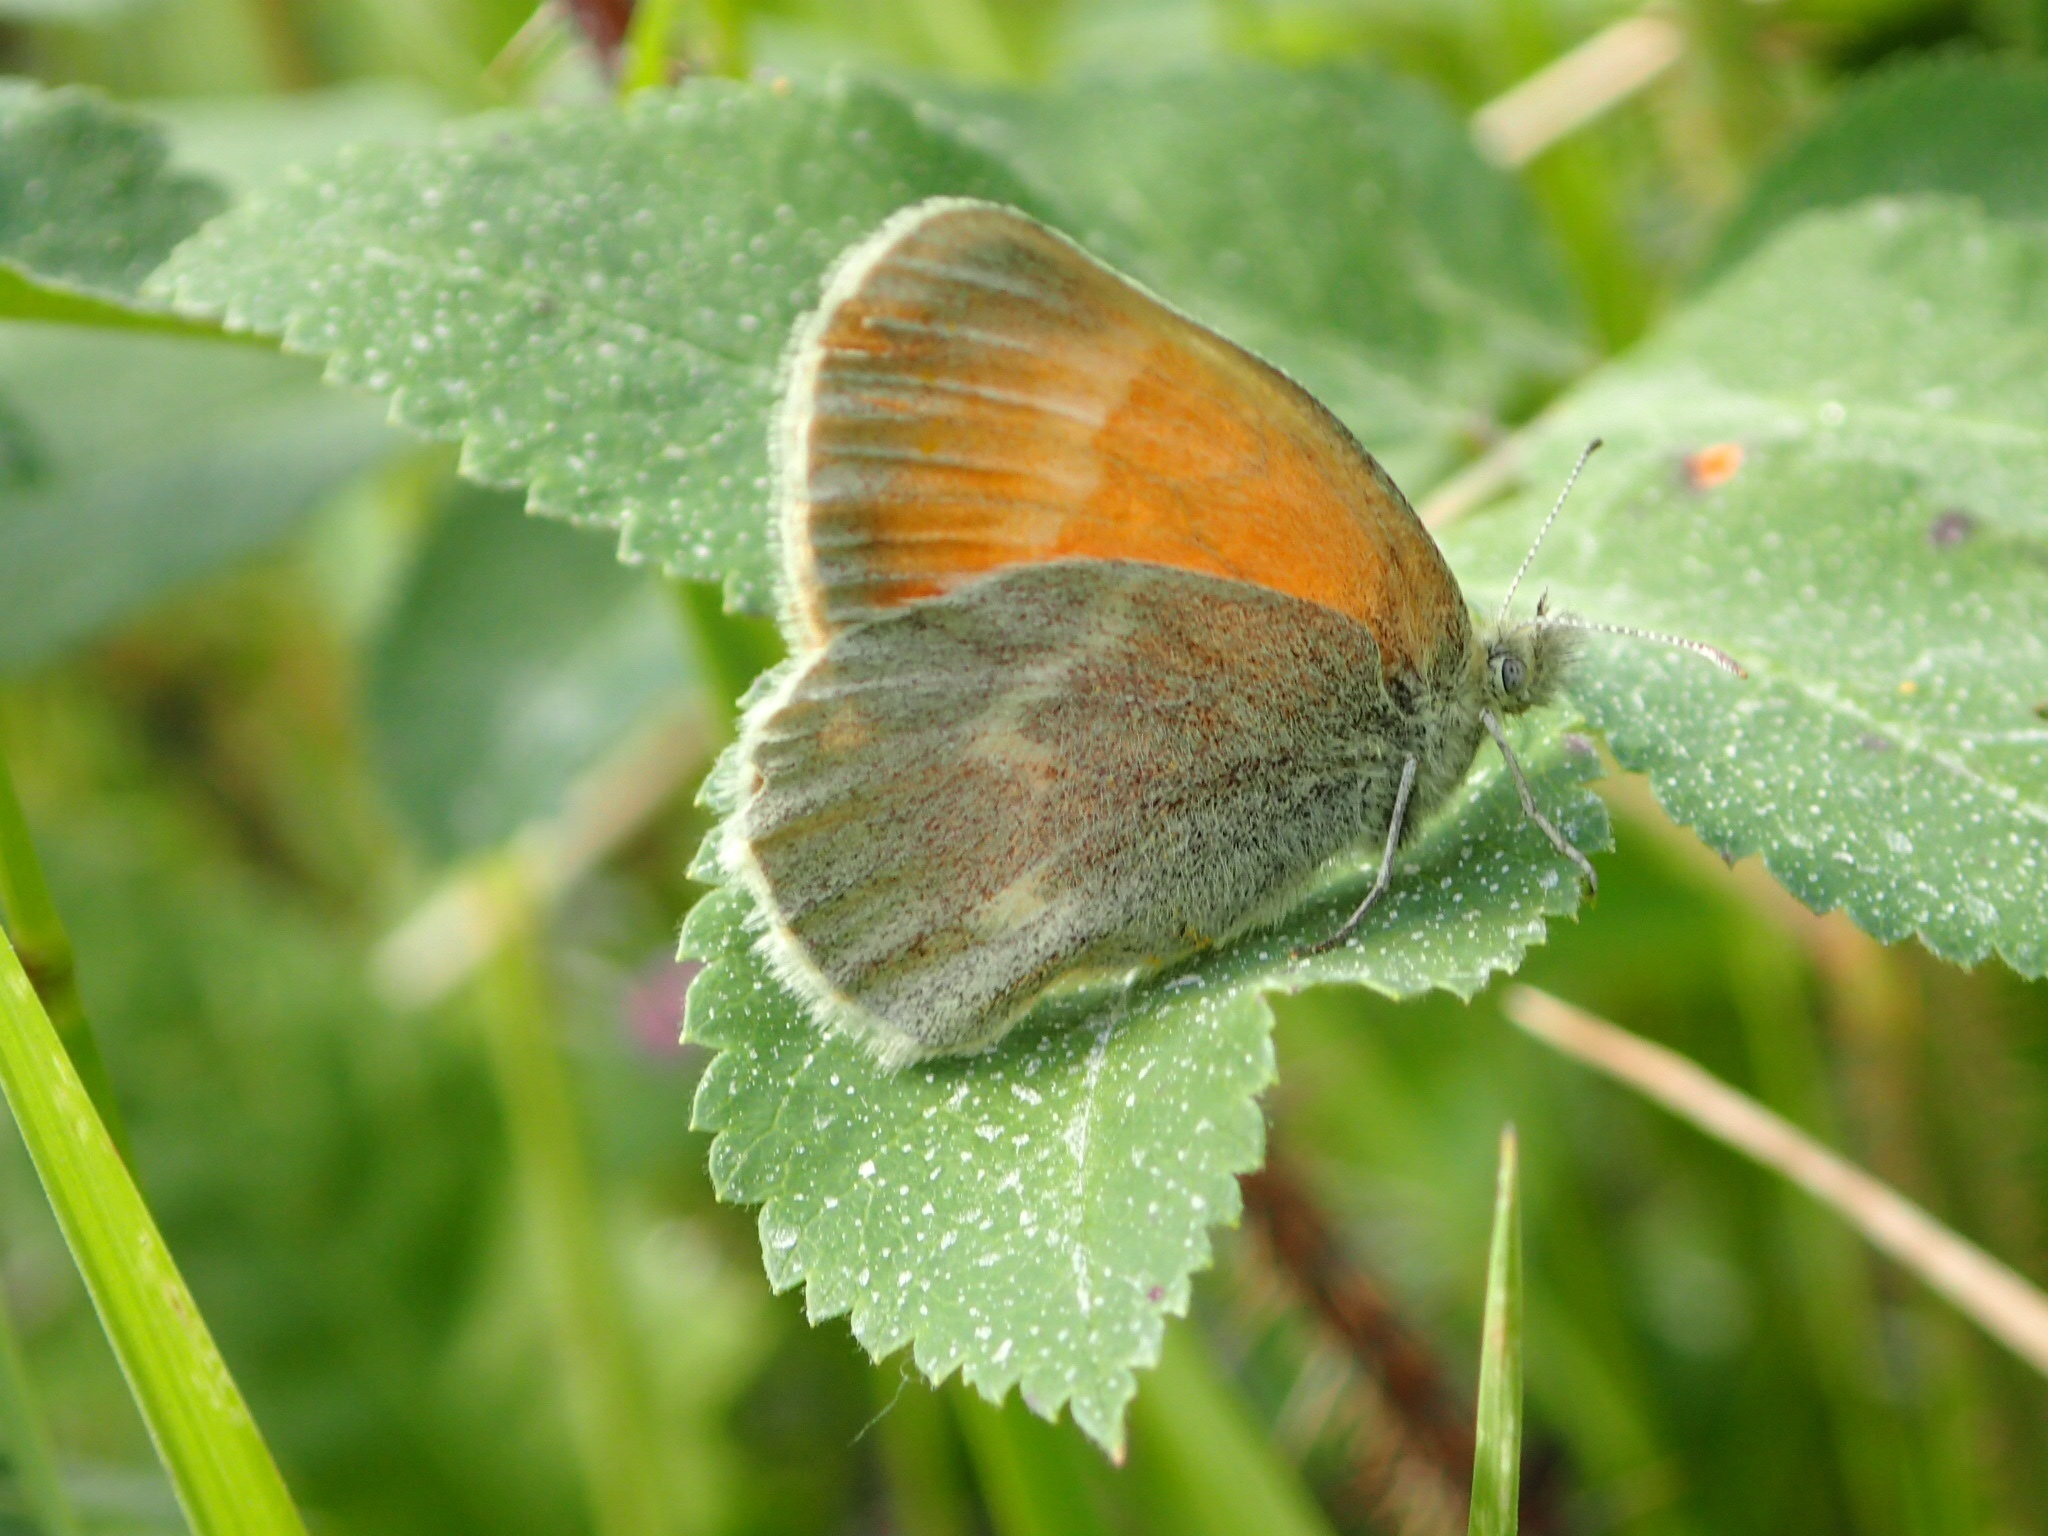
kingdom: Animalia
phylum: Arthropoda
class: Insecta
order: Lepidoptera
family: Nymphalidae
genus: Coenonympha
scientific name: Coenonympha california
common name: Common ringlet
